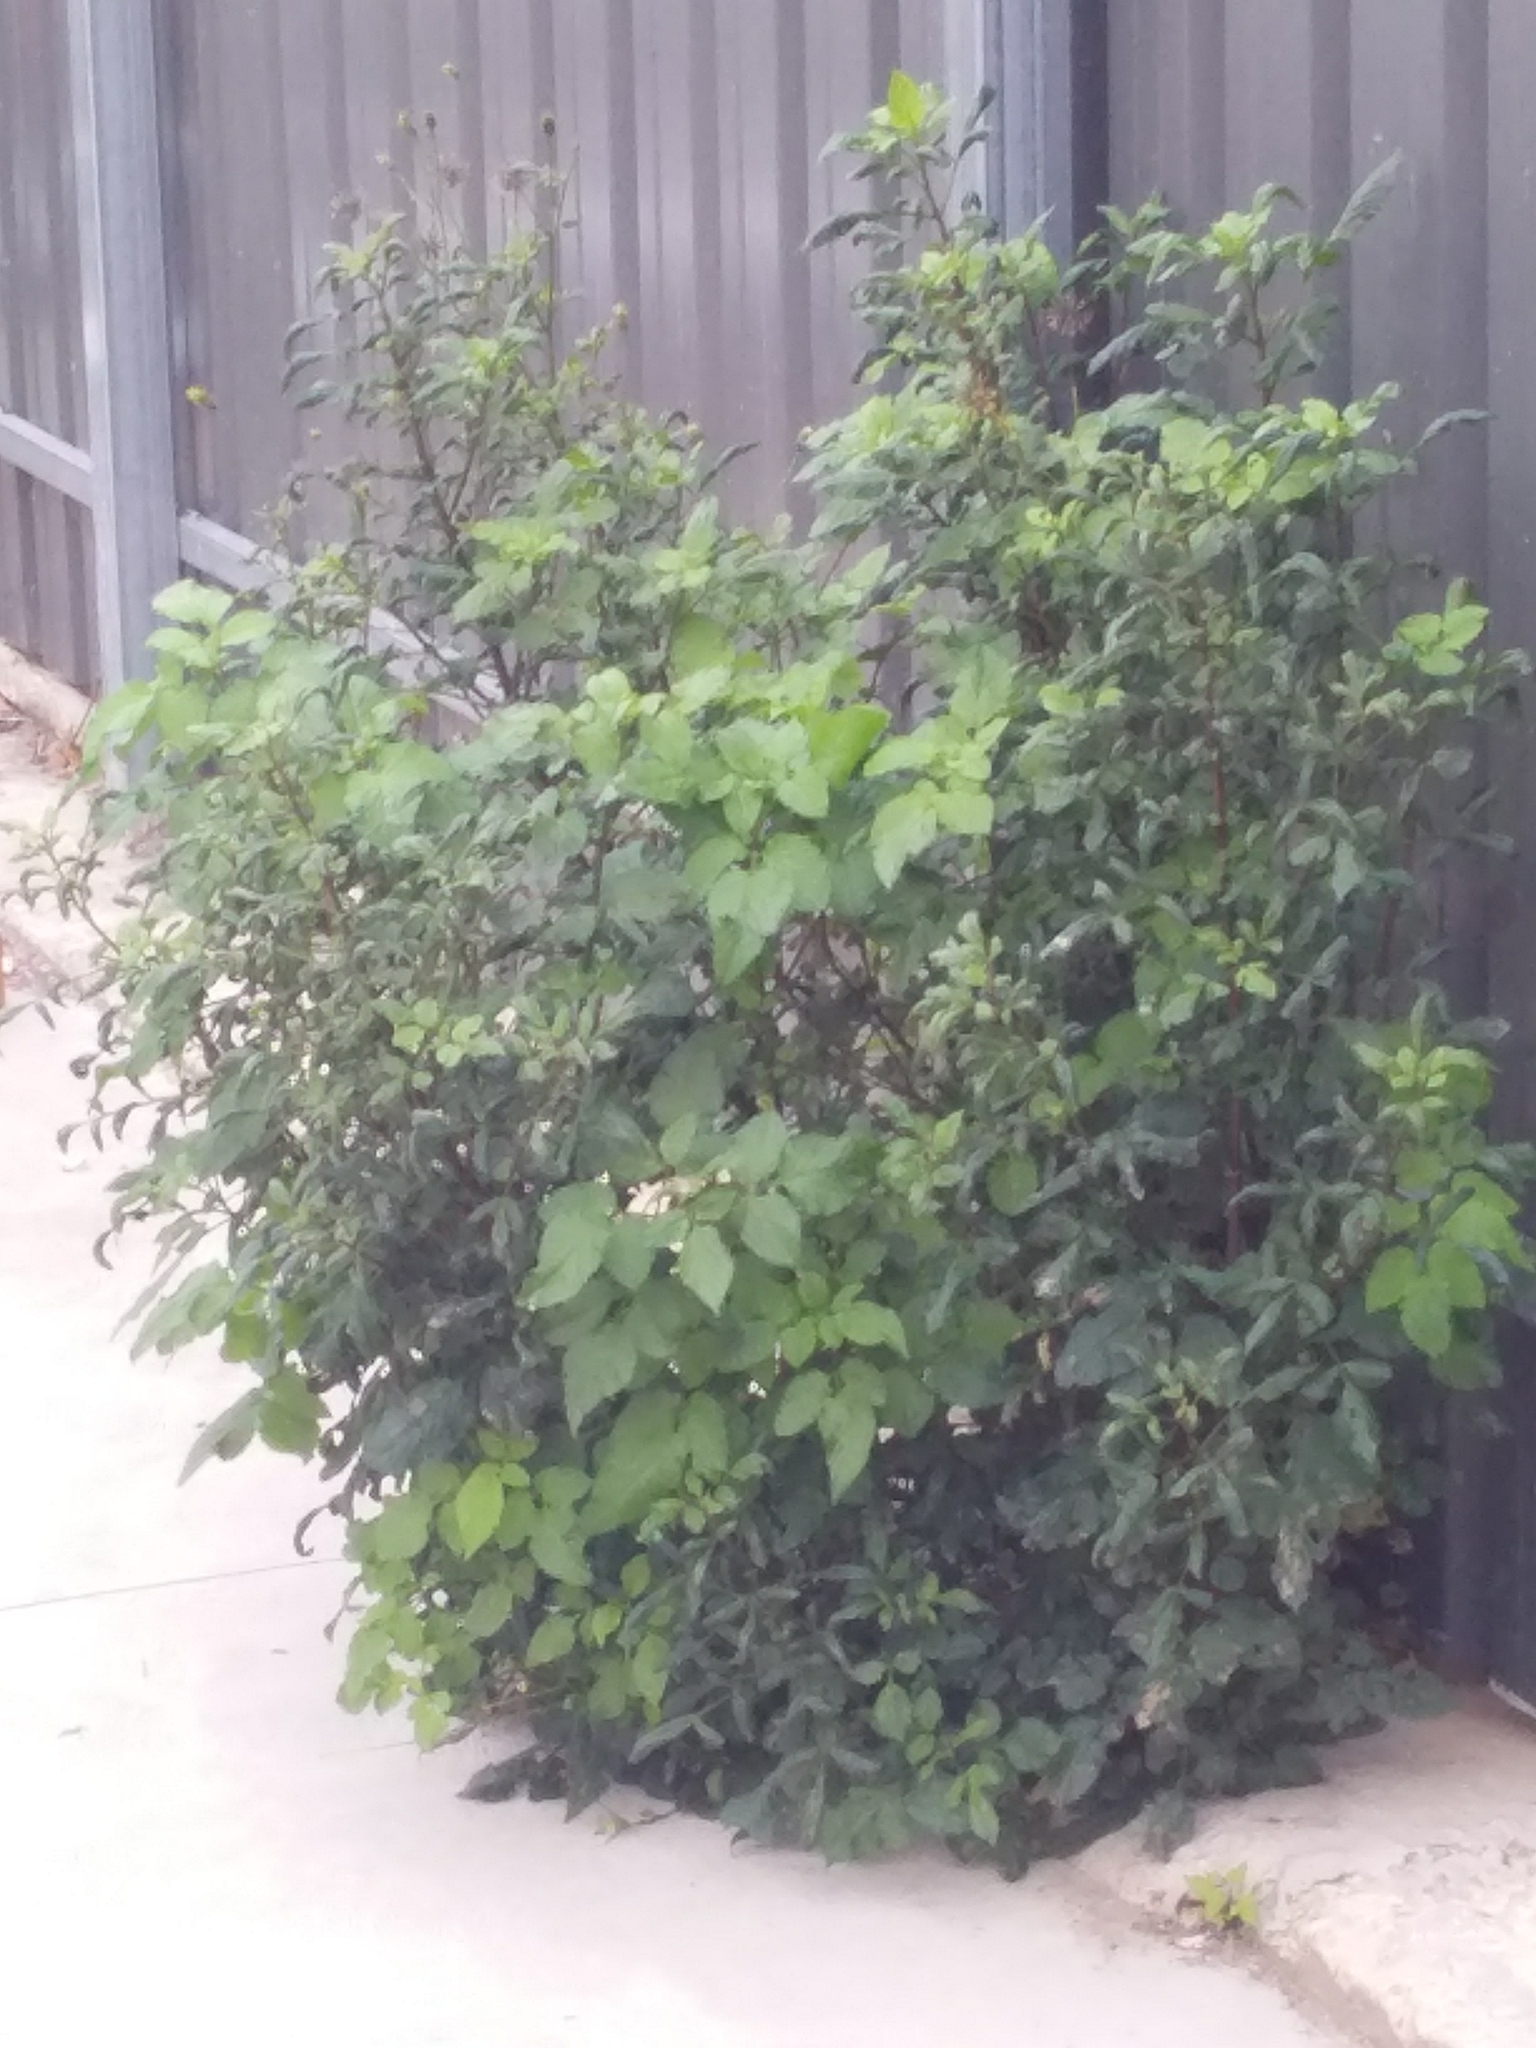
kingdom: Plantae
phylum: Tracheophyta
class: Magnoliopsida
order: Asterales
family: Asteraceae
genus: Bidens
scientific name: Bidens pilosa
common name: Black-jack
